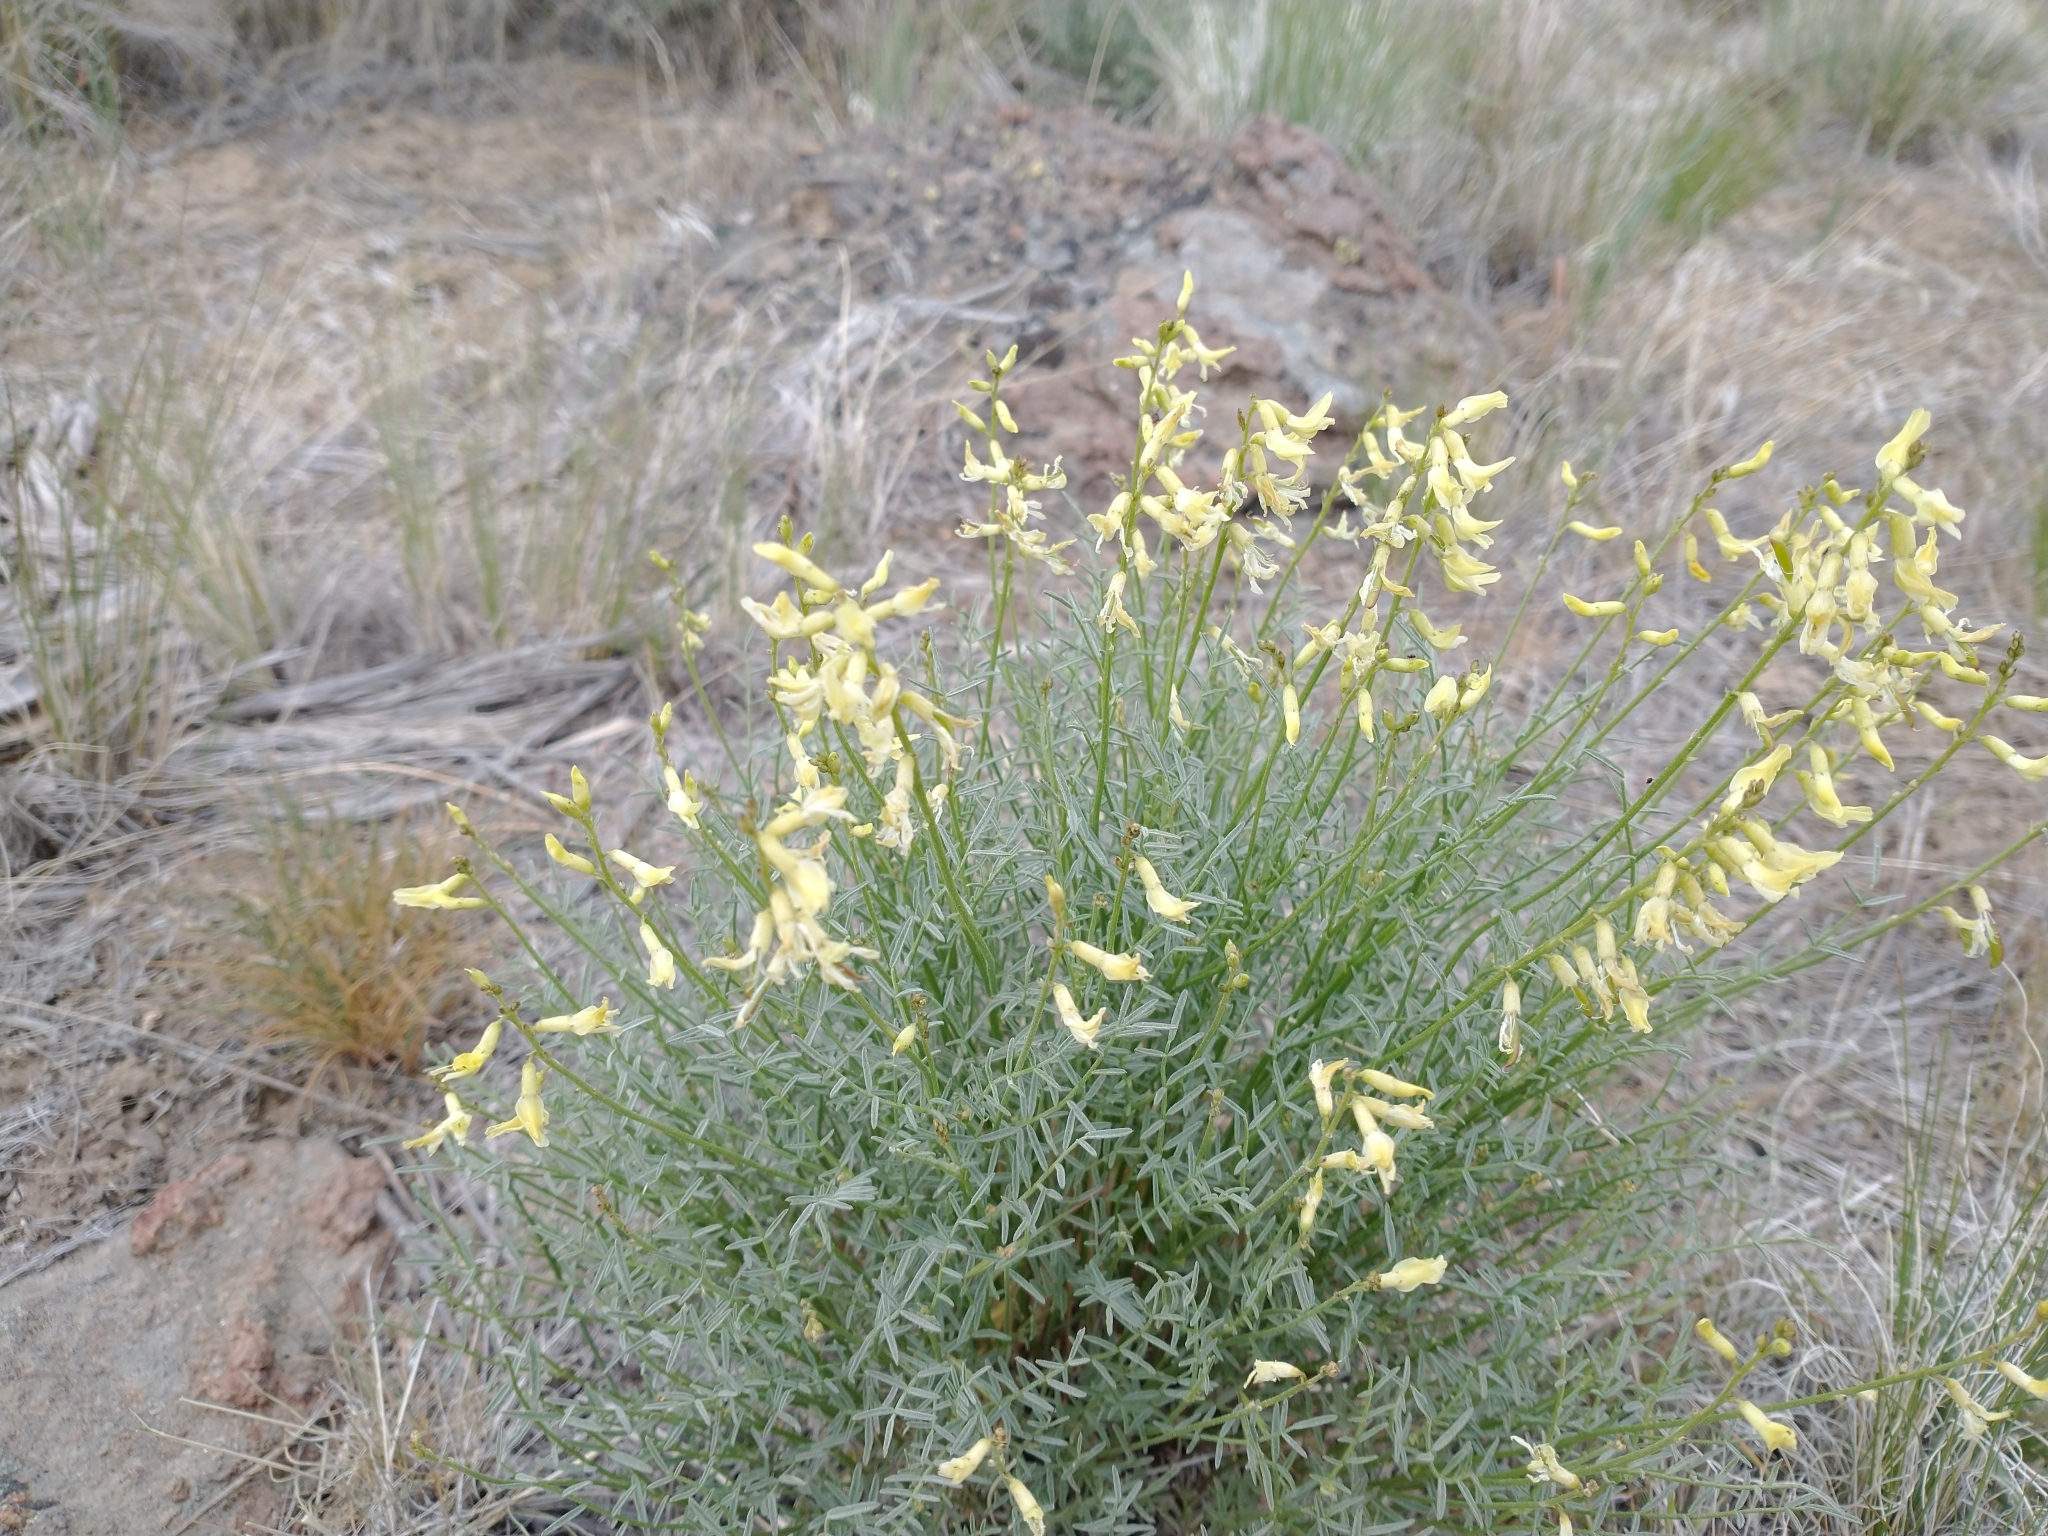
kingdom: Plantae
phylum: Tracheophyta
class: Magnoliopsida
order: Fabales
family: Fabaceae
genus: Astragalus
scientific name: Astragalus filipes
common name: Basalt milk-vetch
